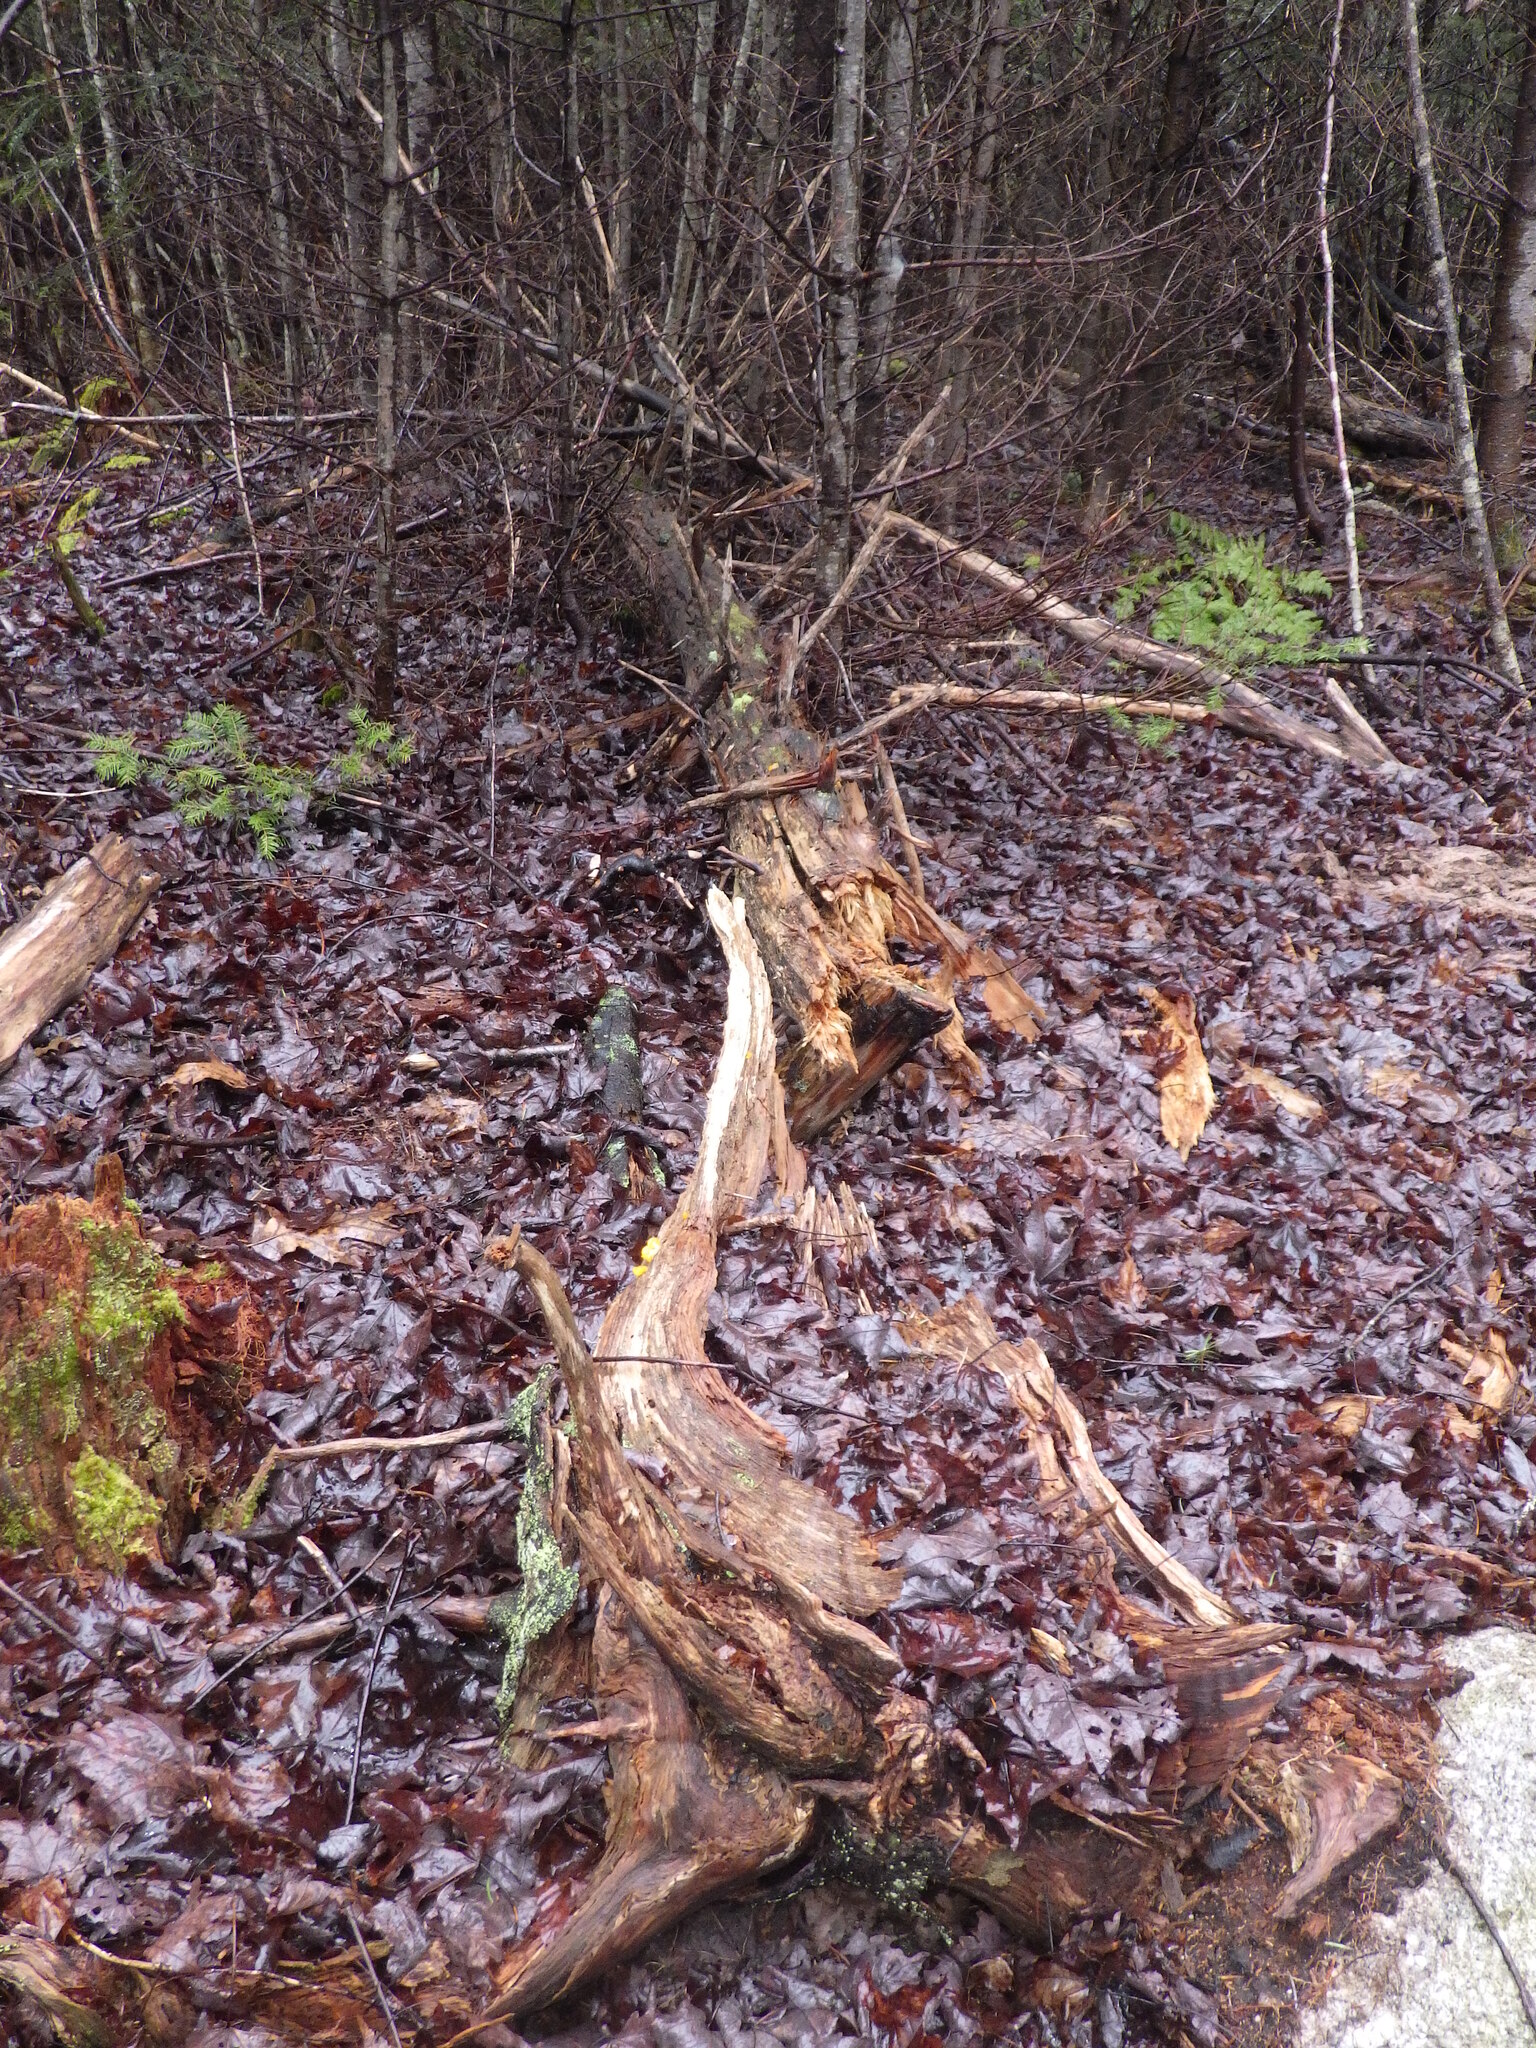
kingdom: Fungi
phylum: Basidiomycota
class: Dacrymycetes
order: Dacrymycetales
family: Dacrymycetaceae
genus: Dacrymyces
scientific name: Dacrymyces chrysospermus
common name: Orange jelly spot
